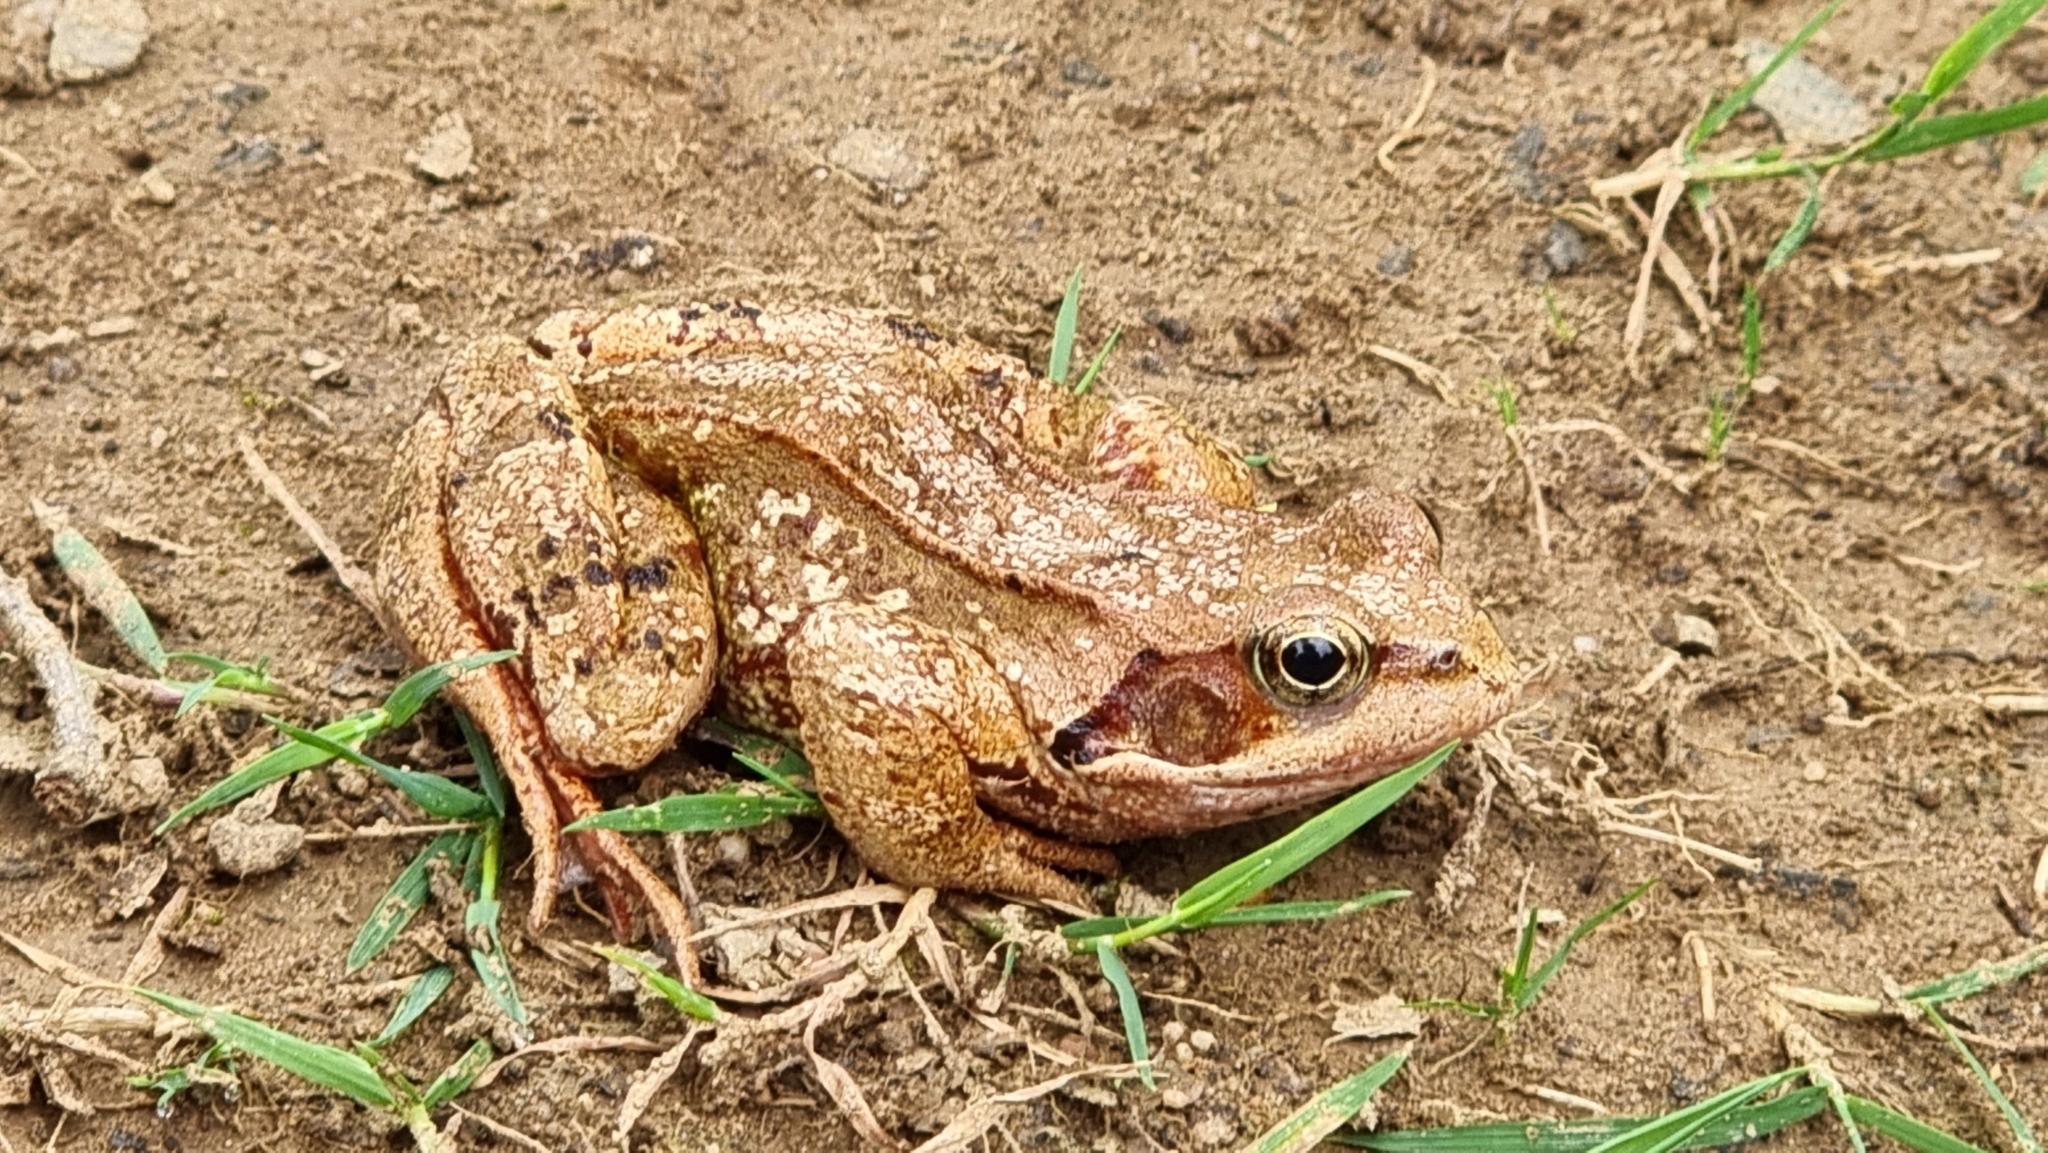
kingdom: Animalia
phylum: Chordata
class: Amphibia
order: Anura
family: Ranidae
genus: Rana
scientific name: Rana temporaria
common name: Common frog
